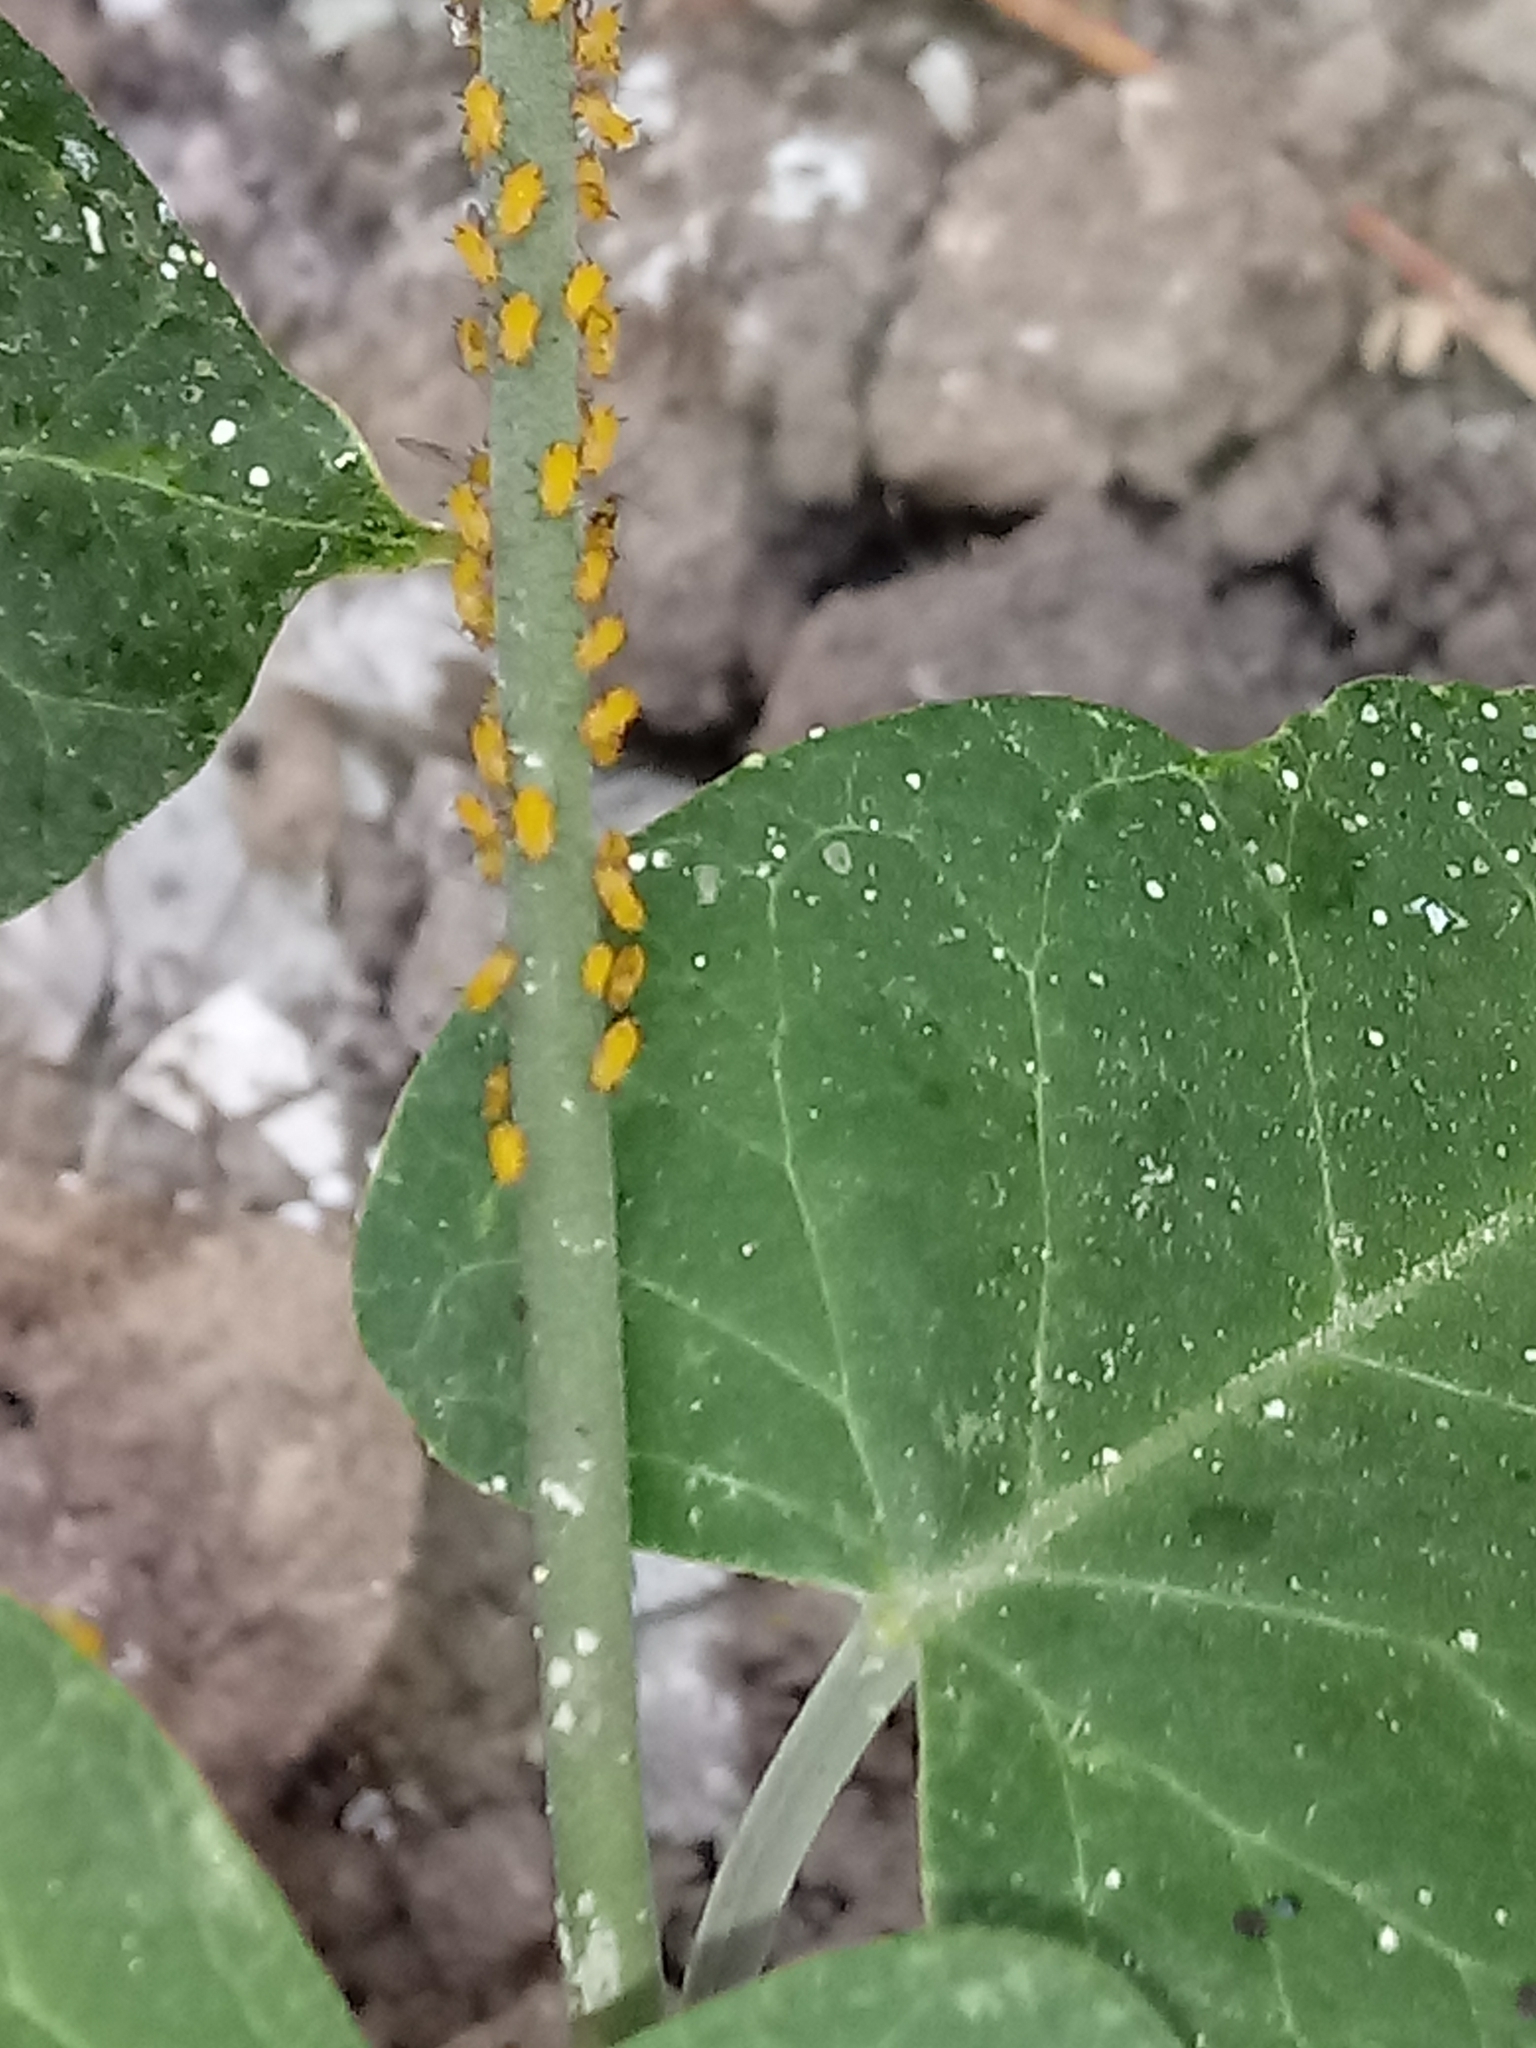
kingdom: Animalia
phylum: Arthropoda
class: Insecta
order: Hemiptera
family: Aphididae
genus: Aphis
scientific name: Aphis nerii
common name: Oleander aphid
